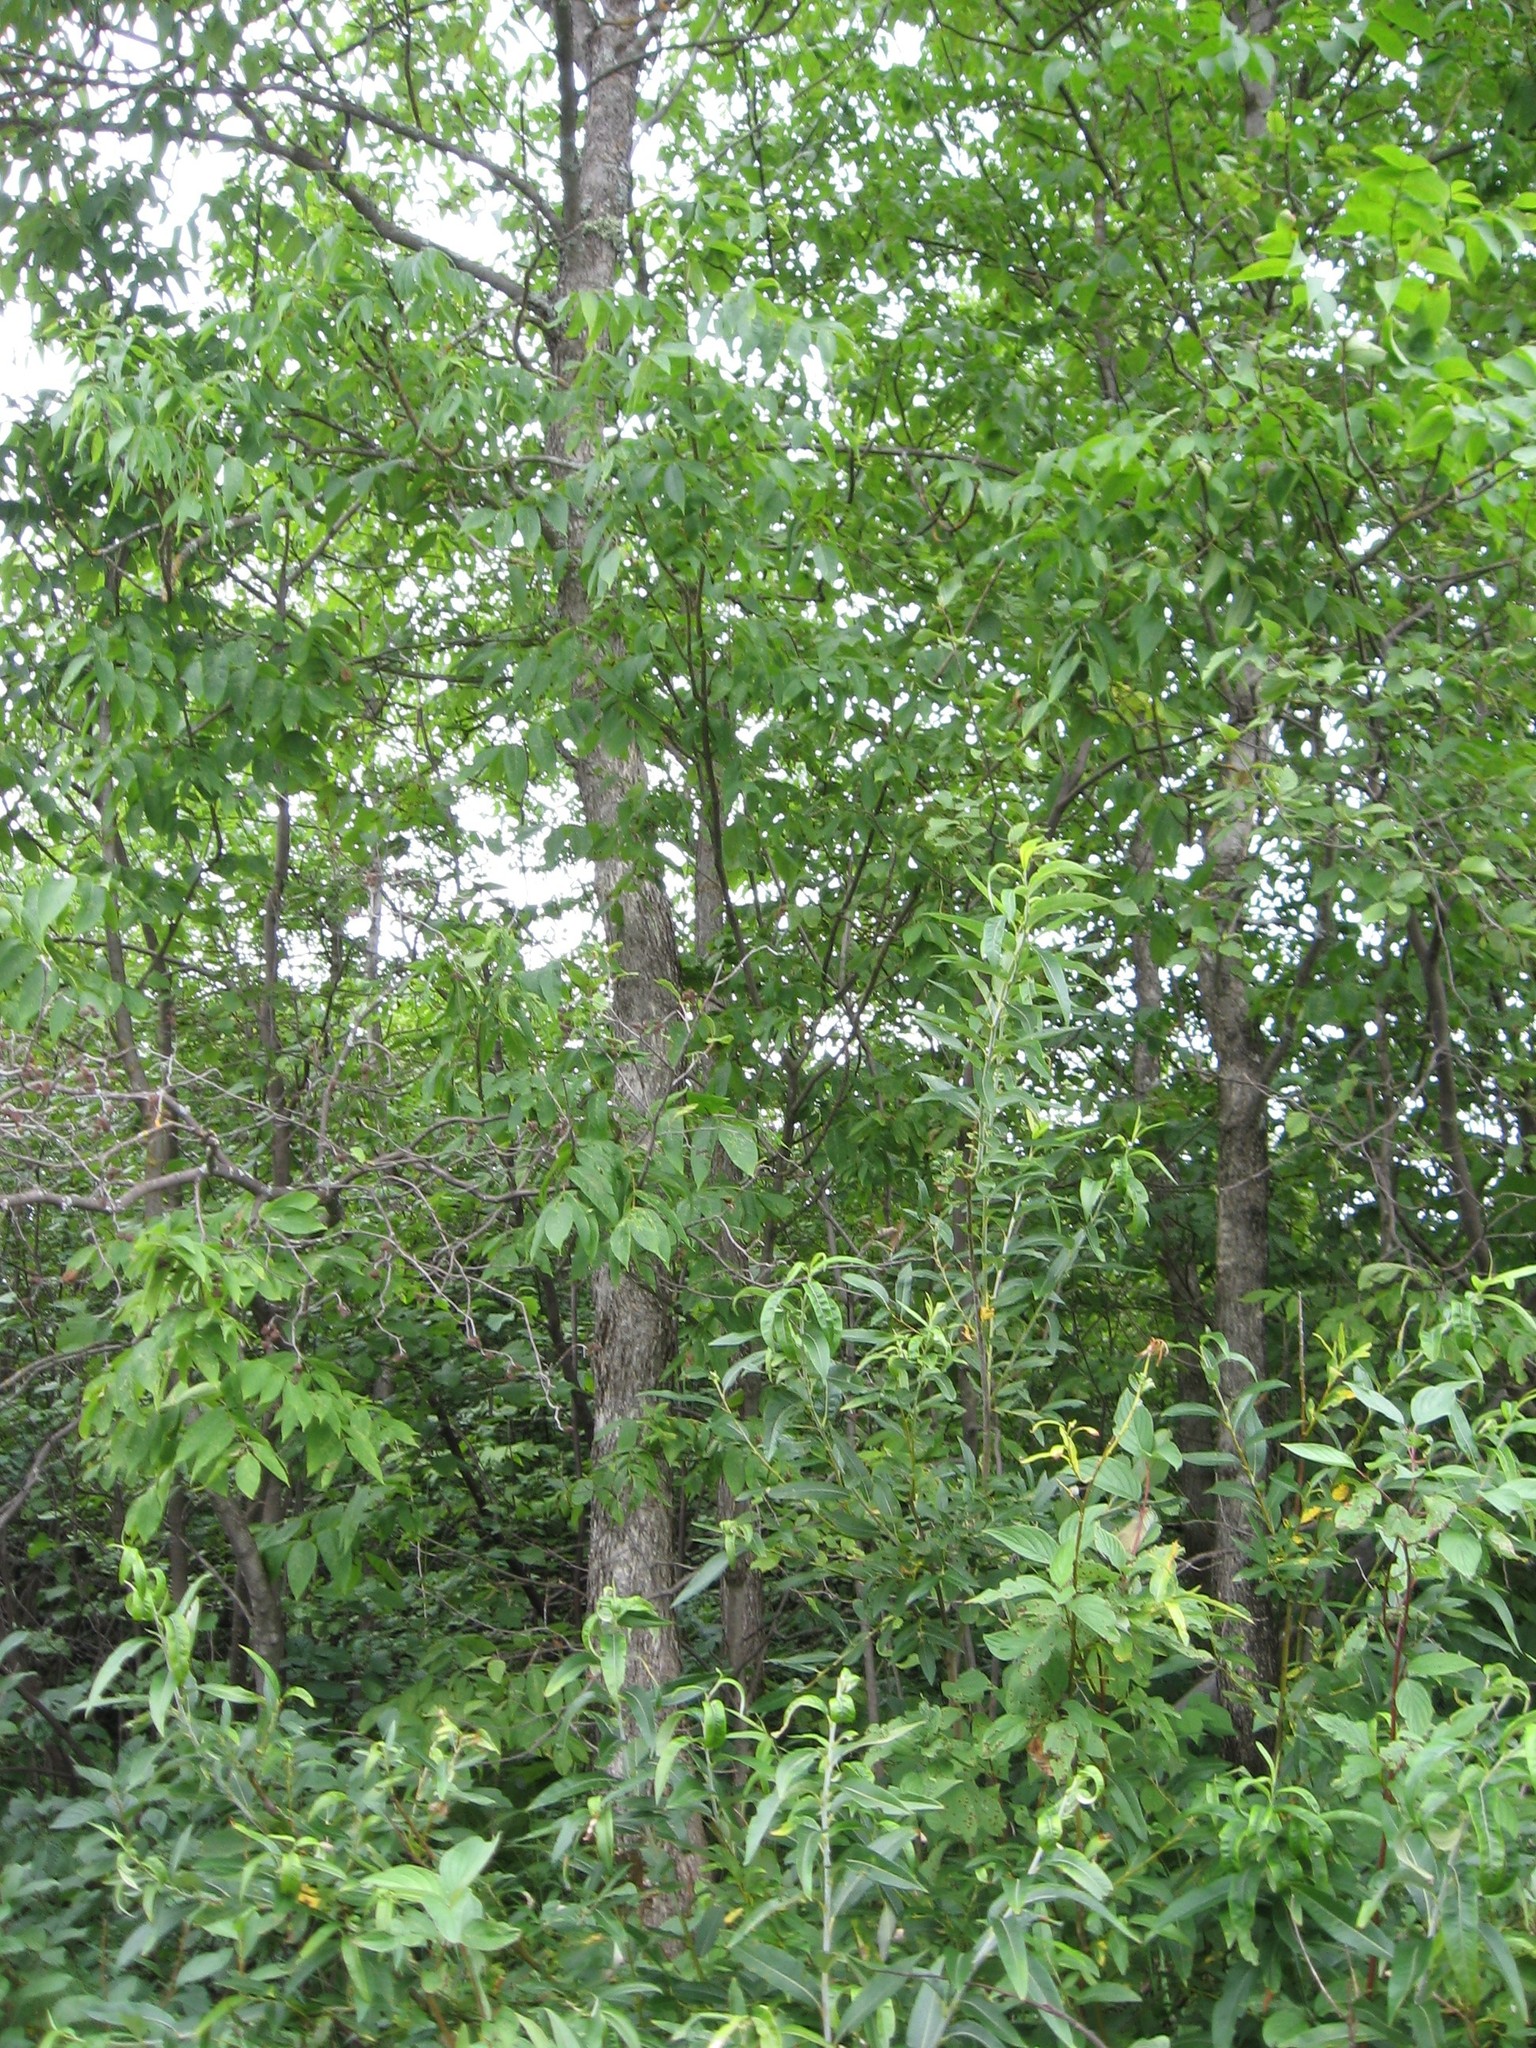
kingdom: Plantae
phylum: Tracheophyta
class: Magnoliopsida
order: Lamiales
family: Oleaceae
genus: Fraxinus
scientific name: Fraxinus nigra
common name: Black ash
